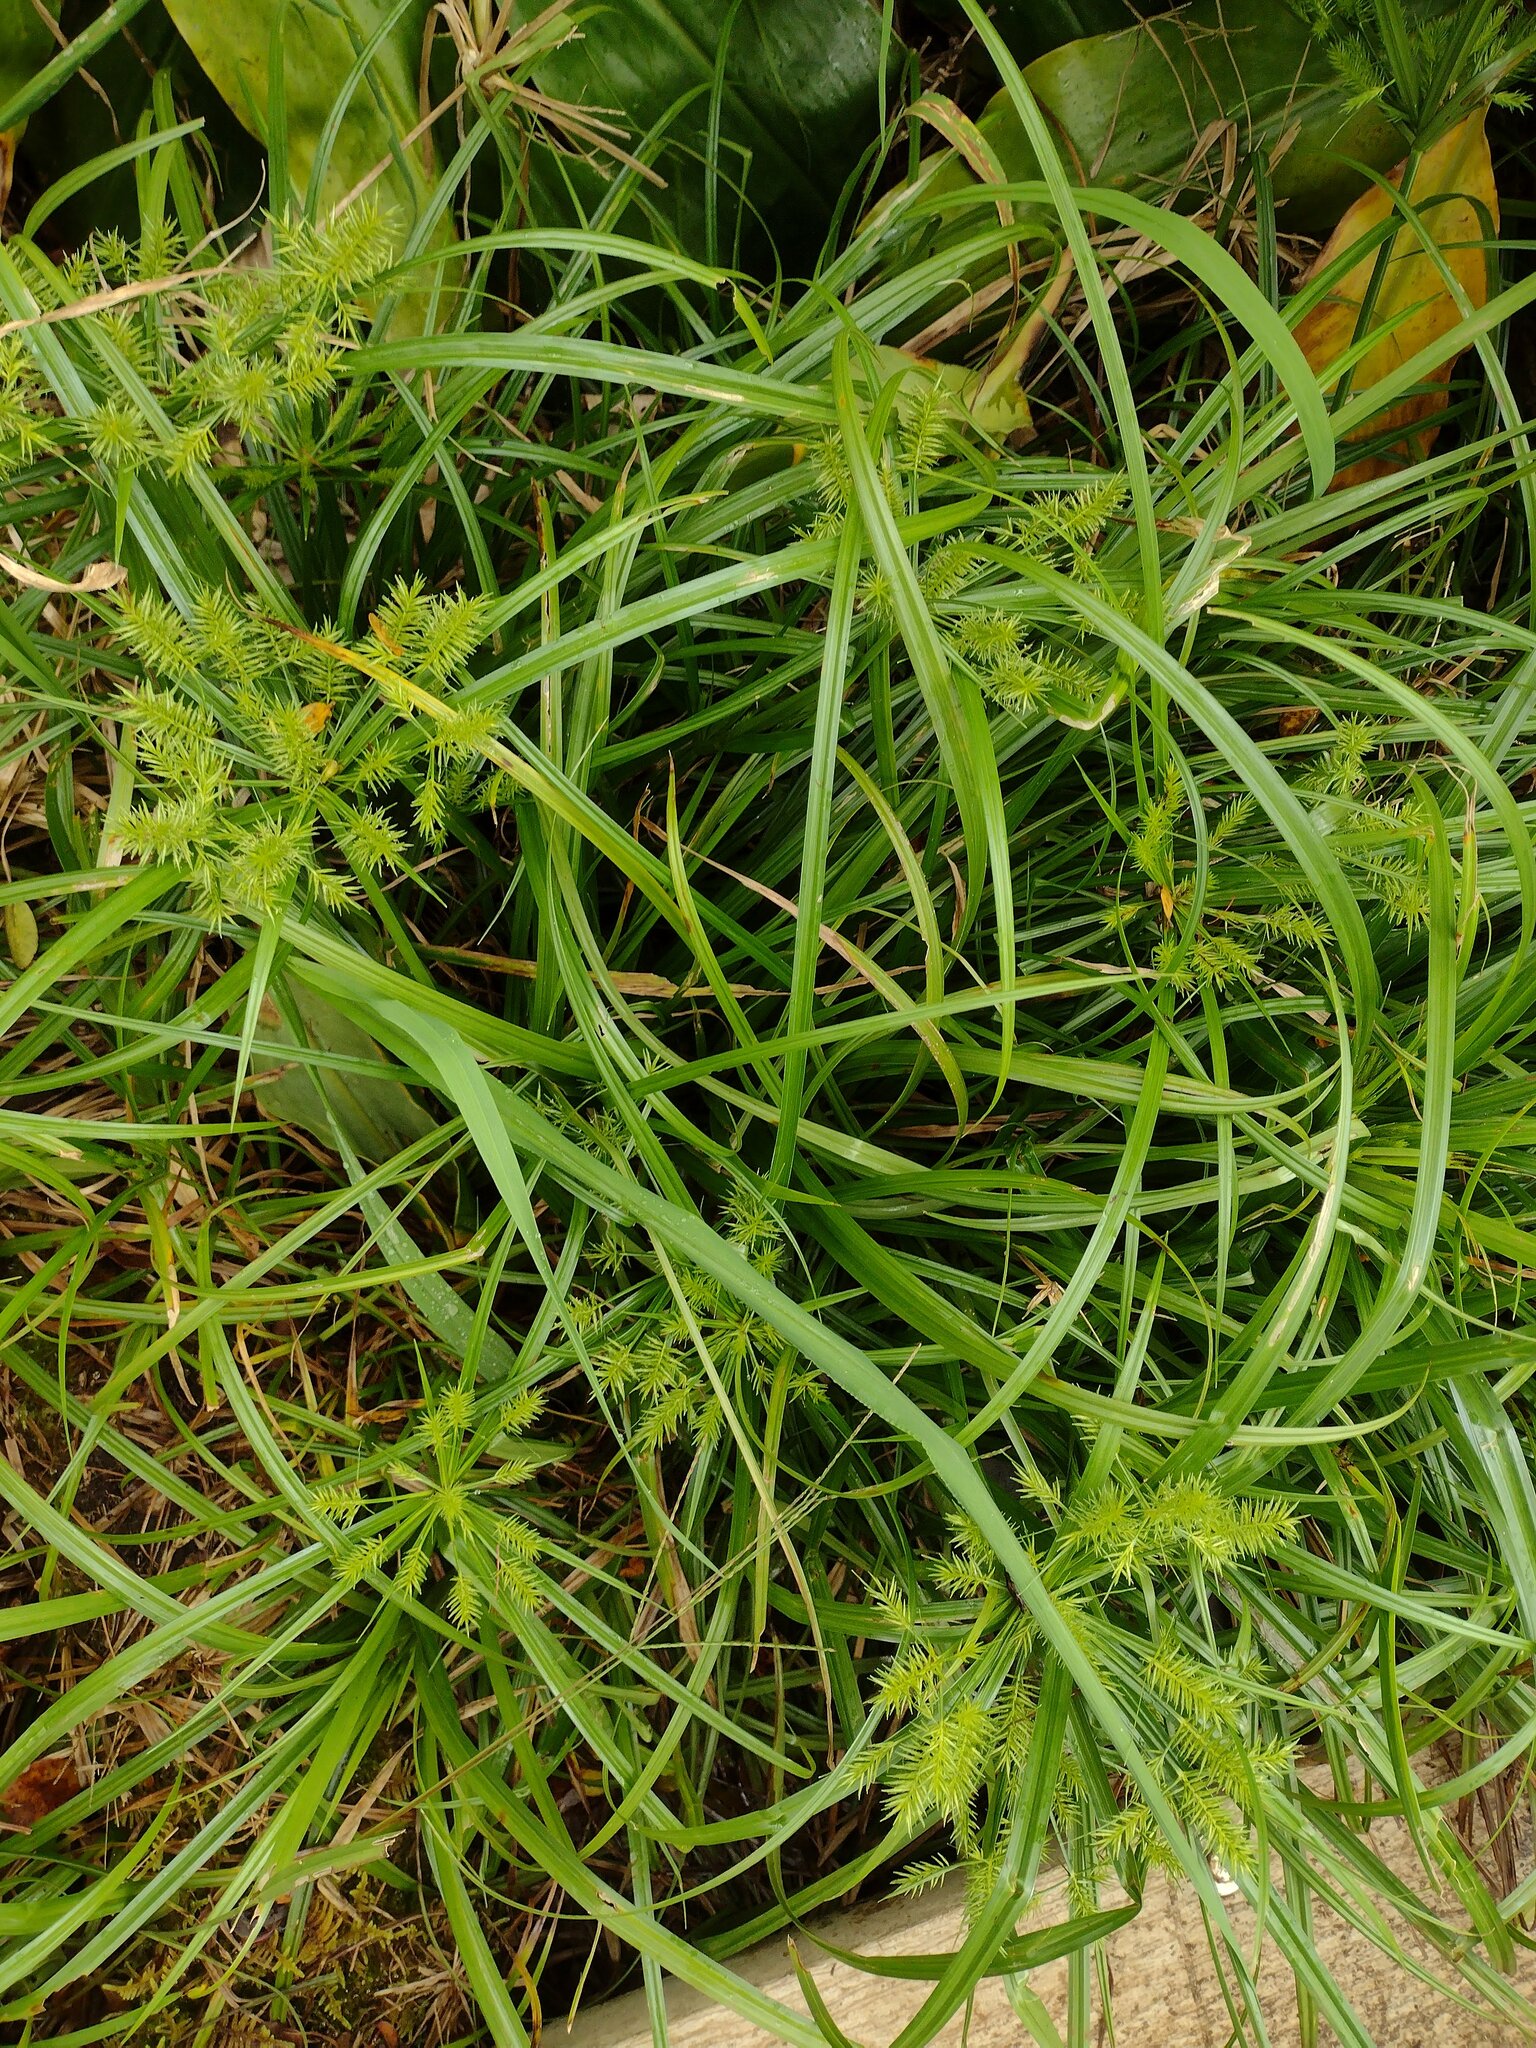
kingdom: Plantae
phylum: Tracheophyta
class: Liliopsida
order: Poales
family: Cyperaceae
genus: Cyperus
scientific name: Cyperus meyenianus
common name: Meyen's flatsedge
